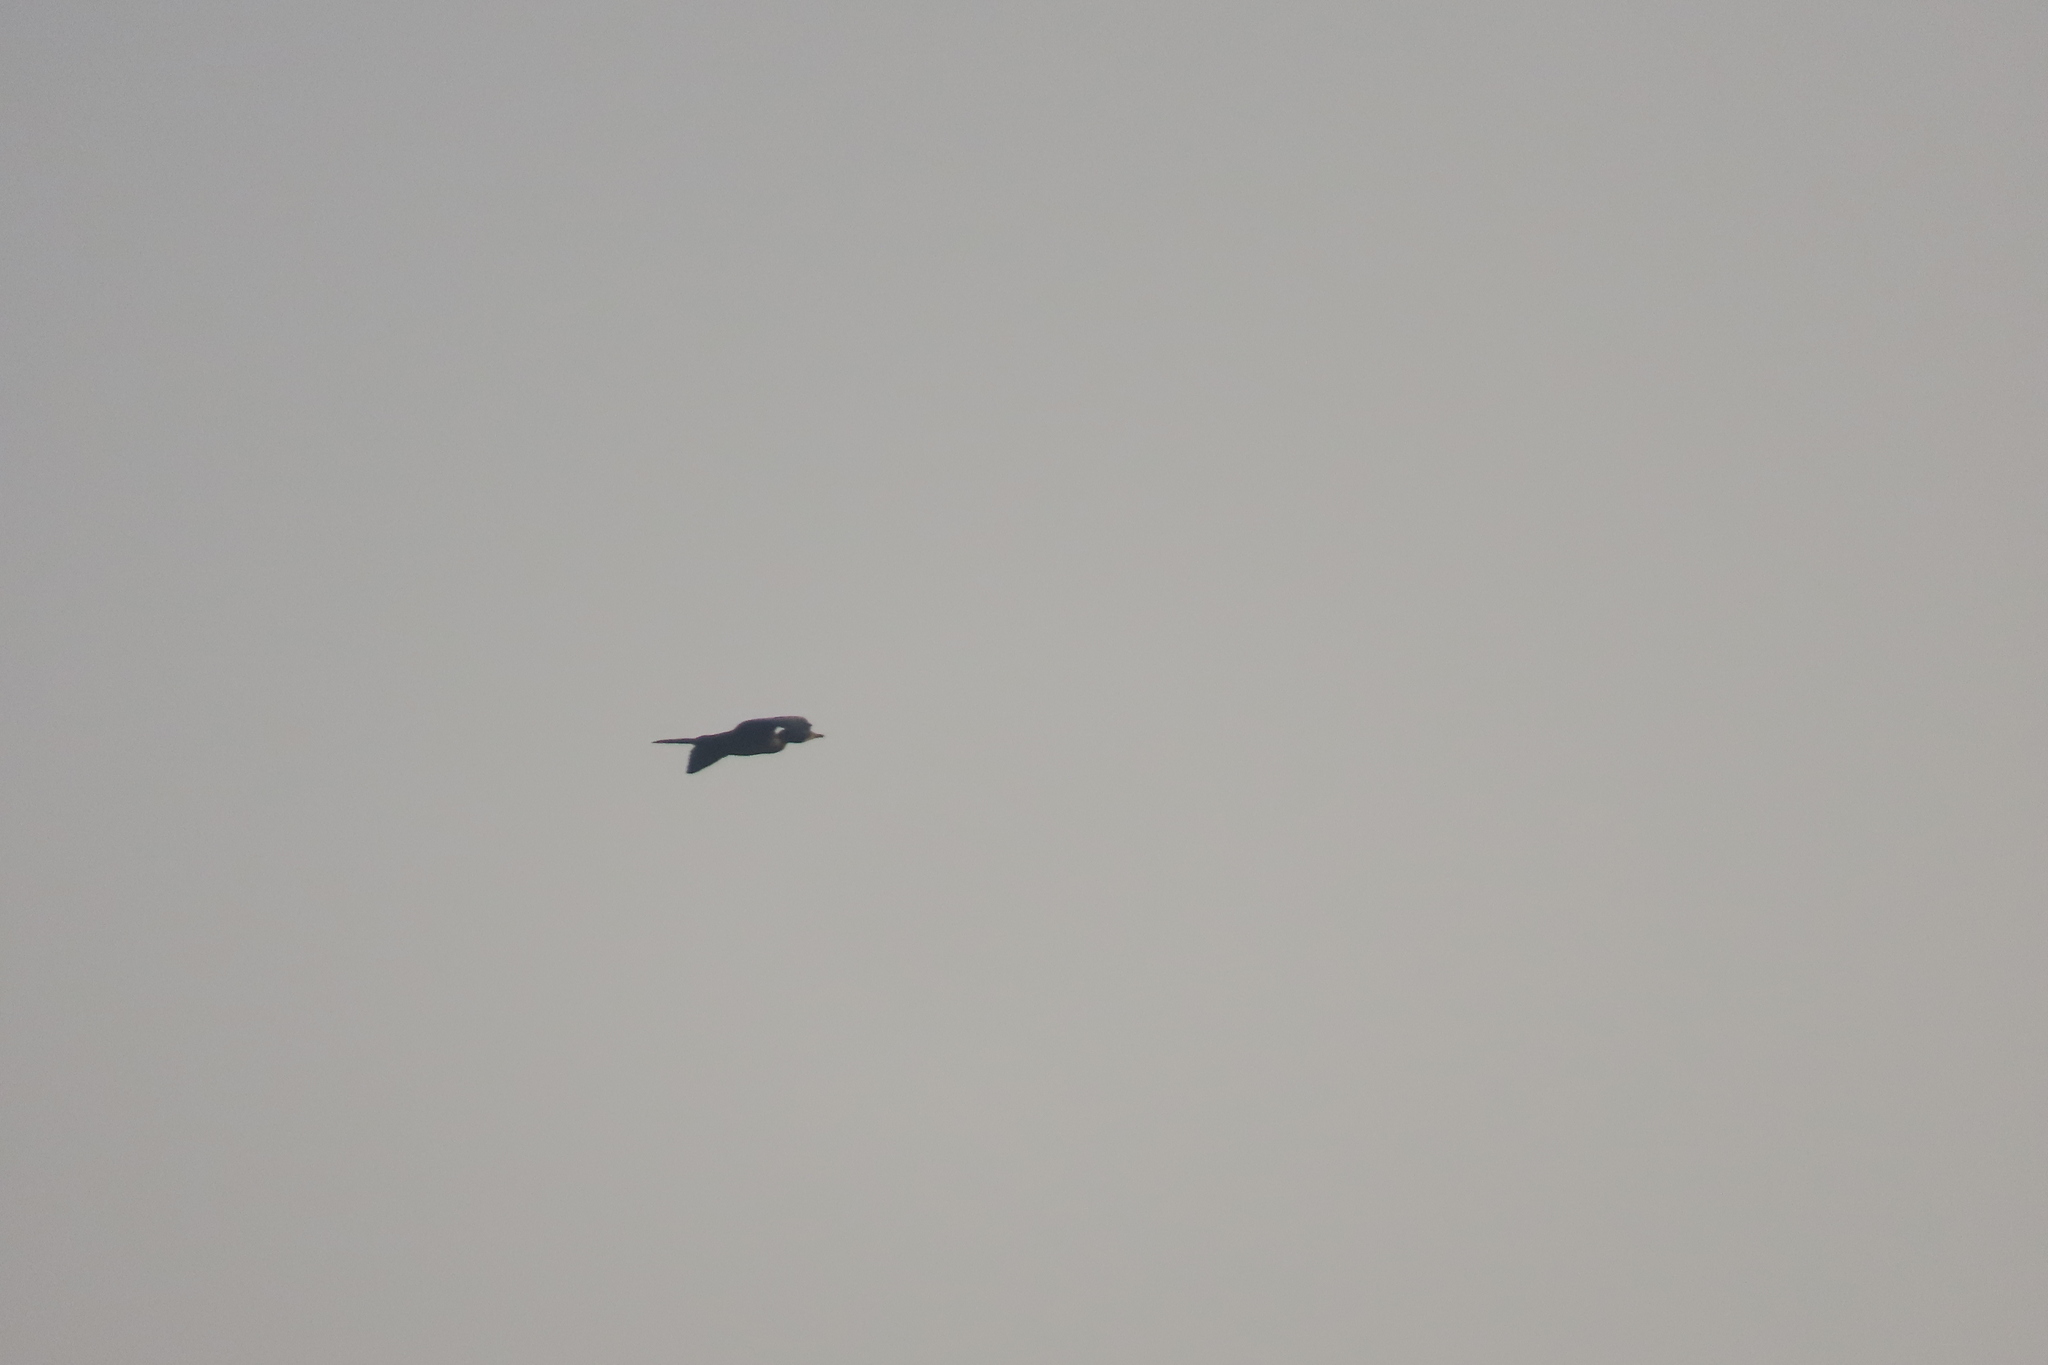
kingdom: Animalia
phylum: Chordata
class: Aves
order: Suliformes
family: Phalacrocoracidae
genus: Microcarbo
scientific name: Microcarbo niger
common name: Little cormorant
